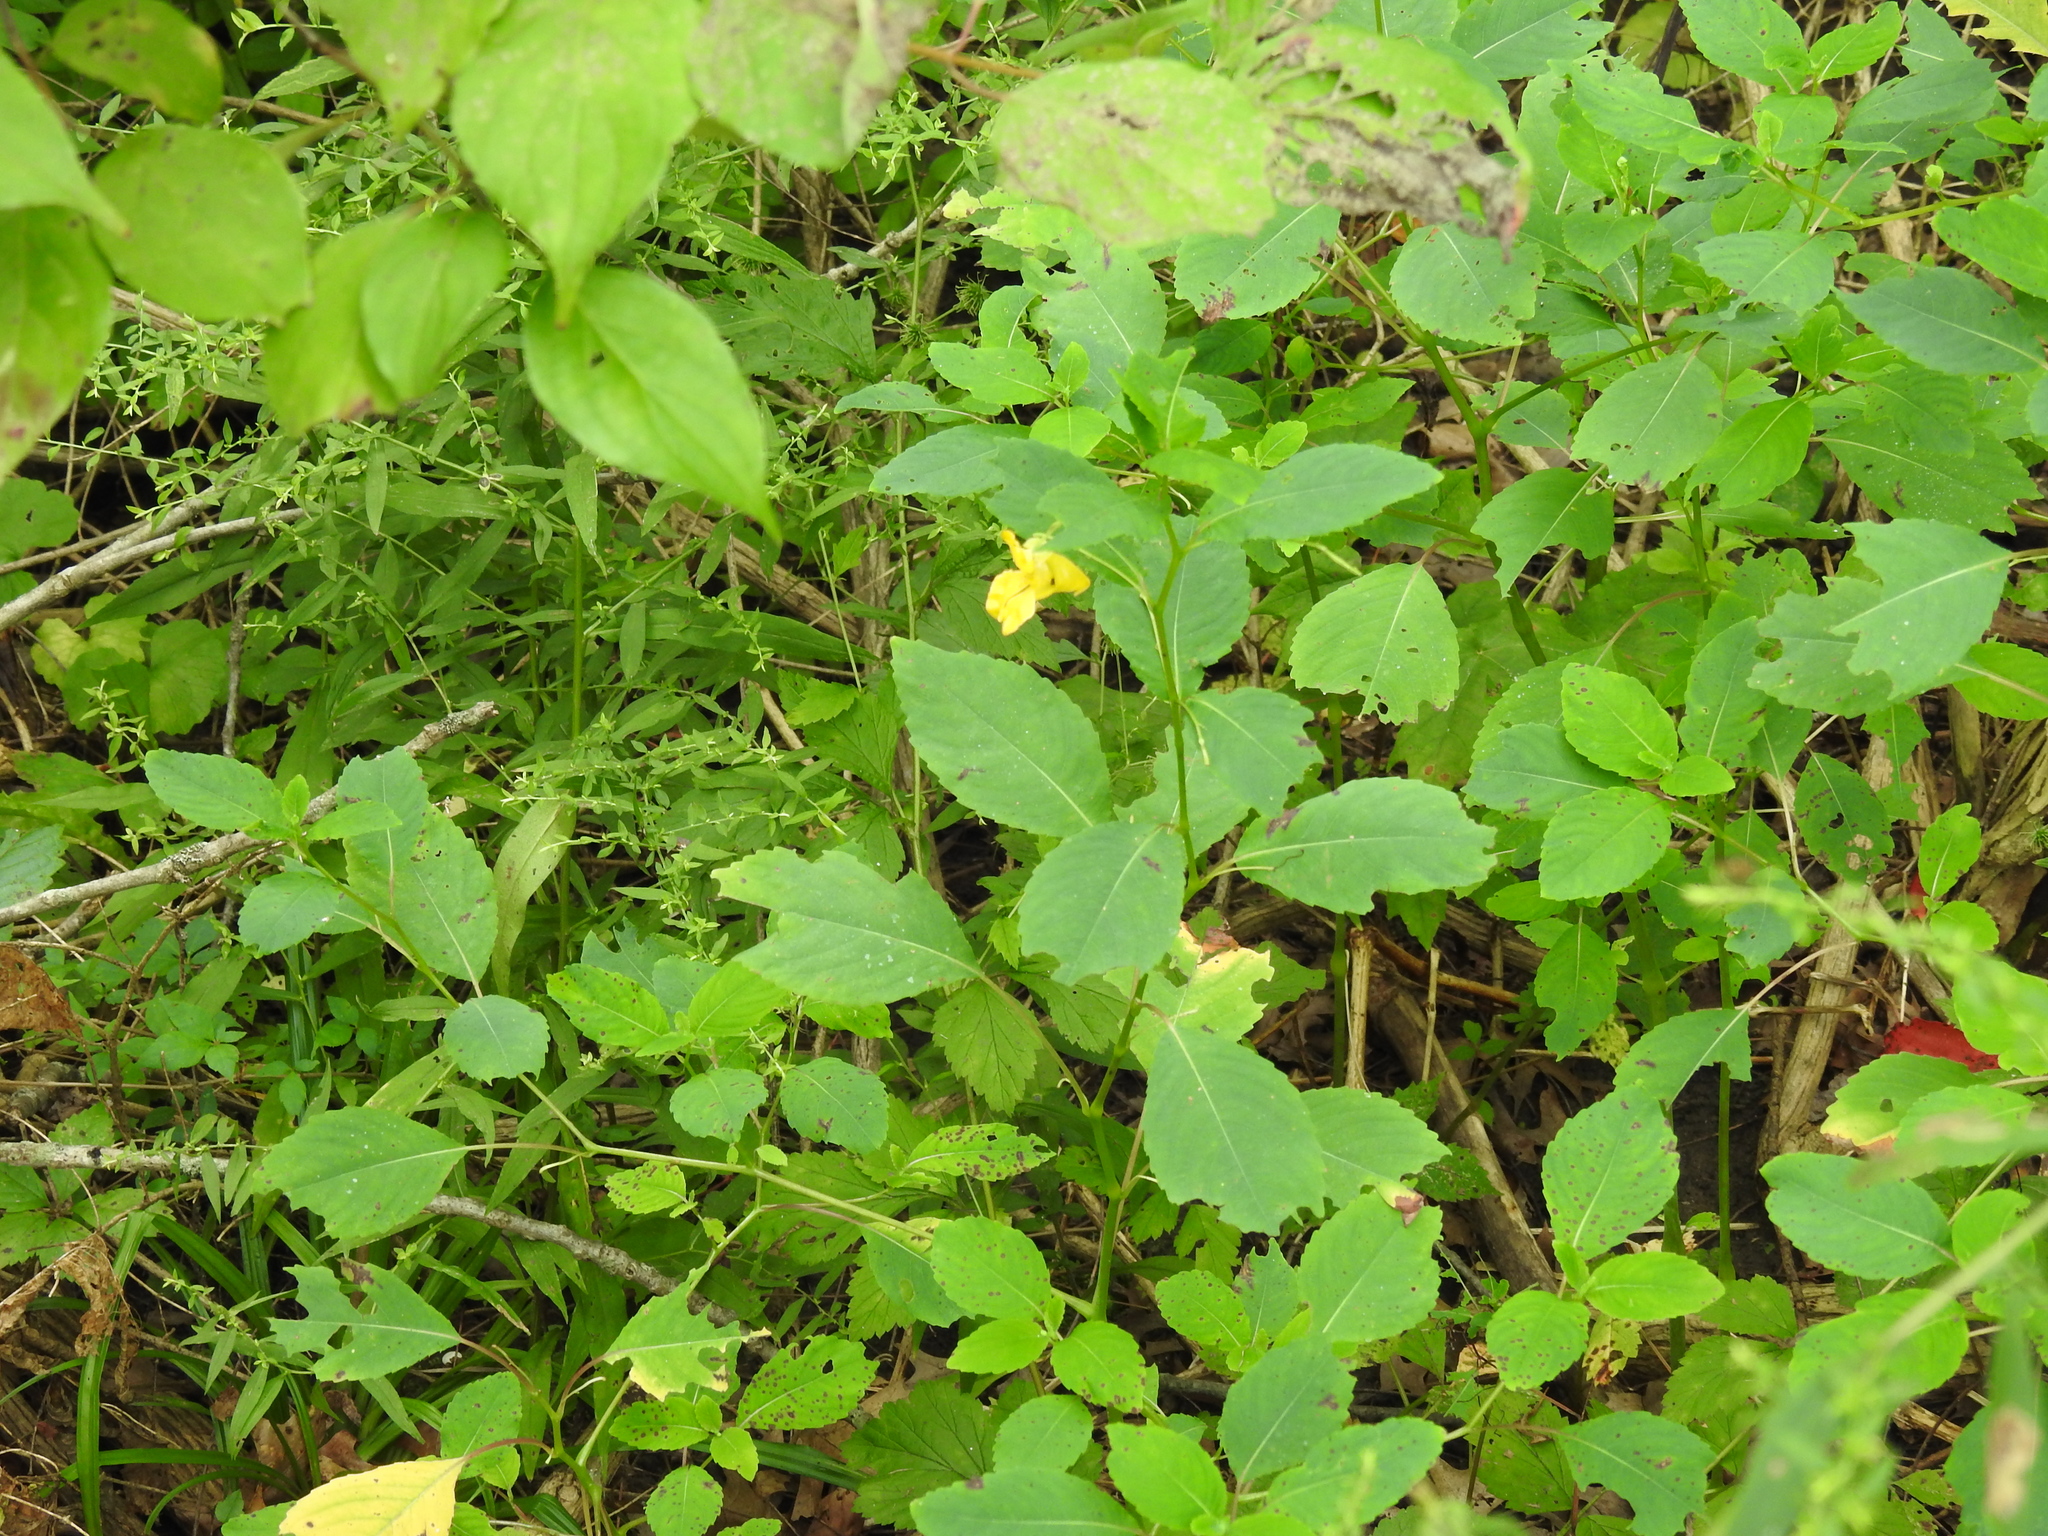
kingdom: Plantae
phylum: Tracheophyta
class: Magnoliopsida
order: Ericales
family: Balsaminaceae
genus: Impatiens
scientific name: Impatiens pallida
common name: Pale snapweed
